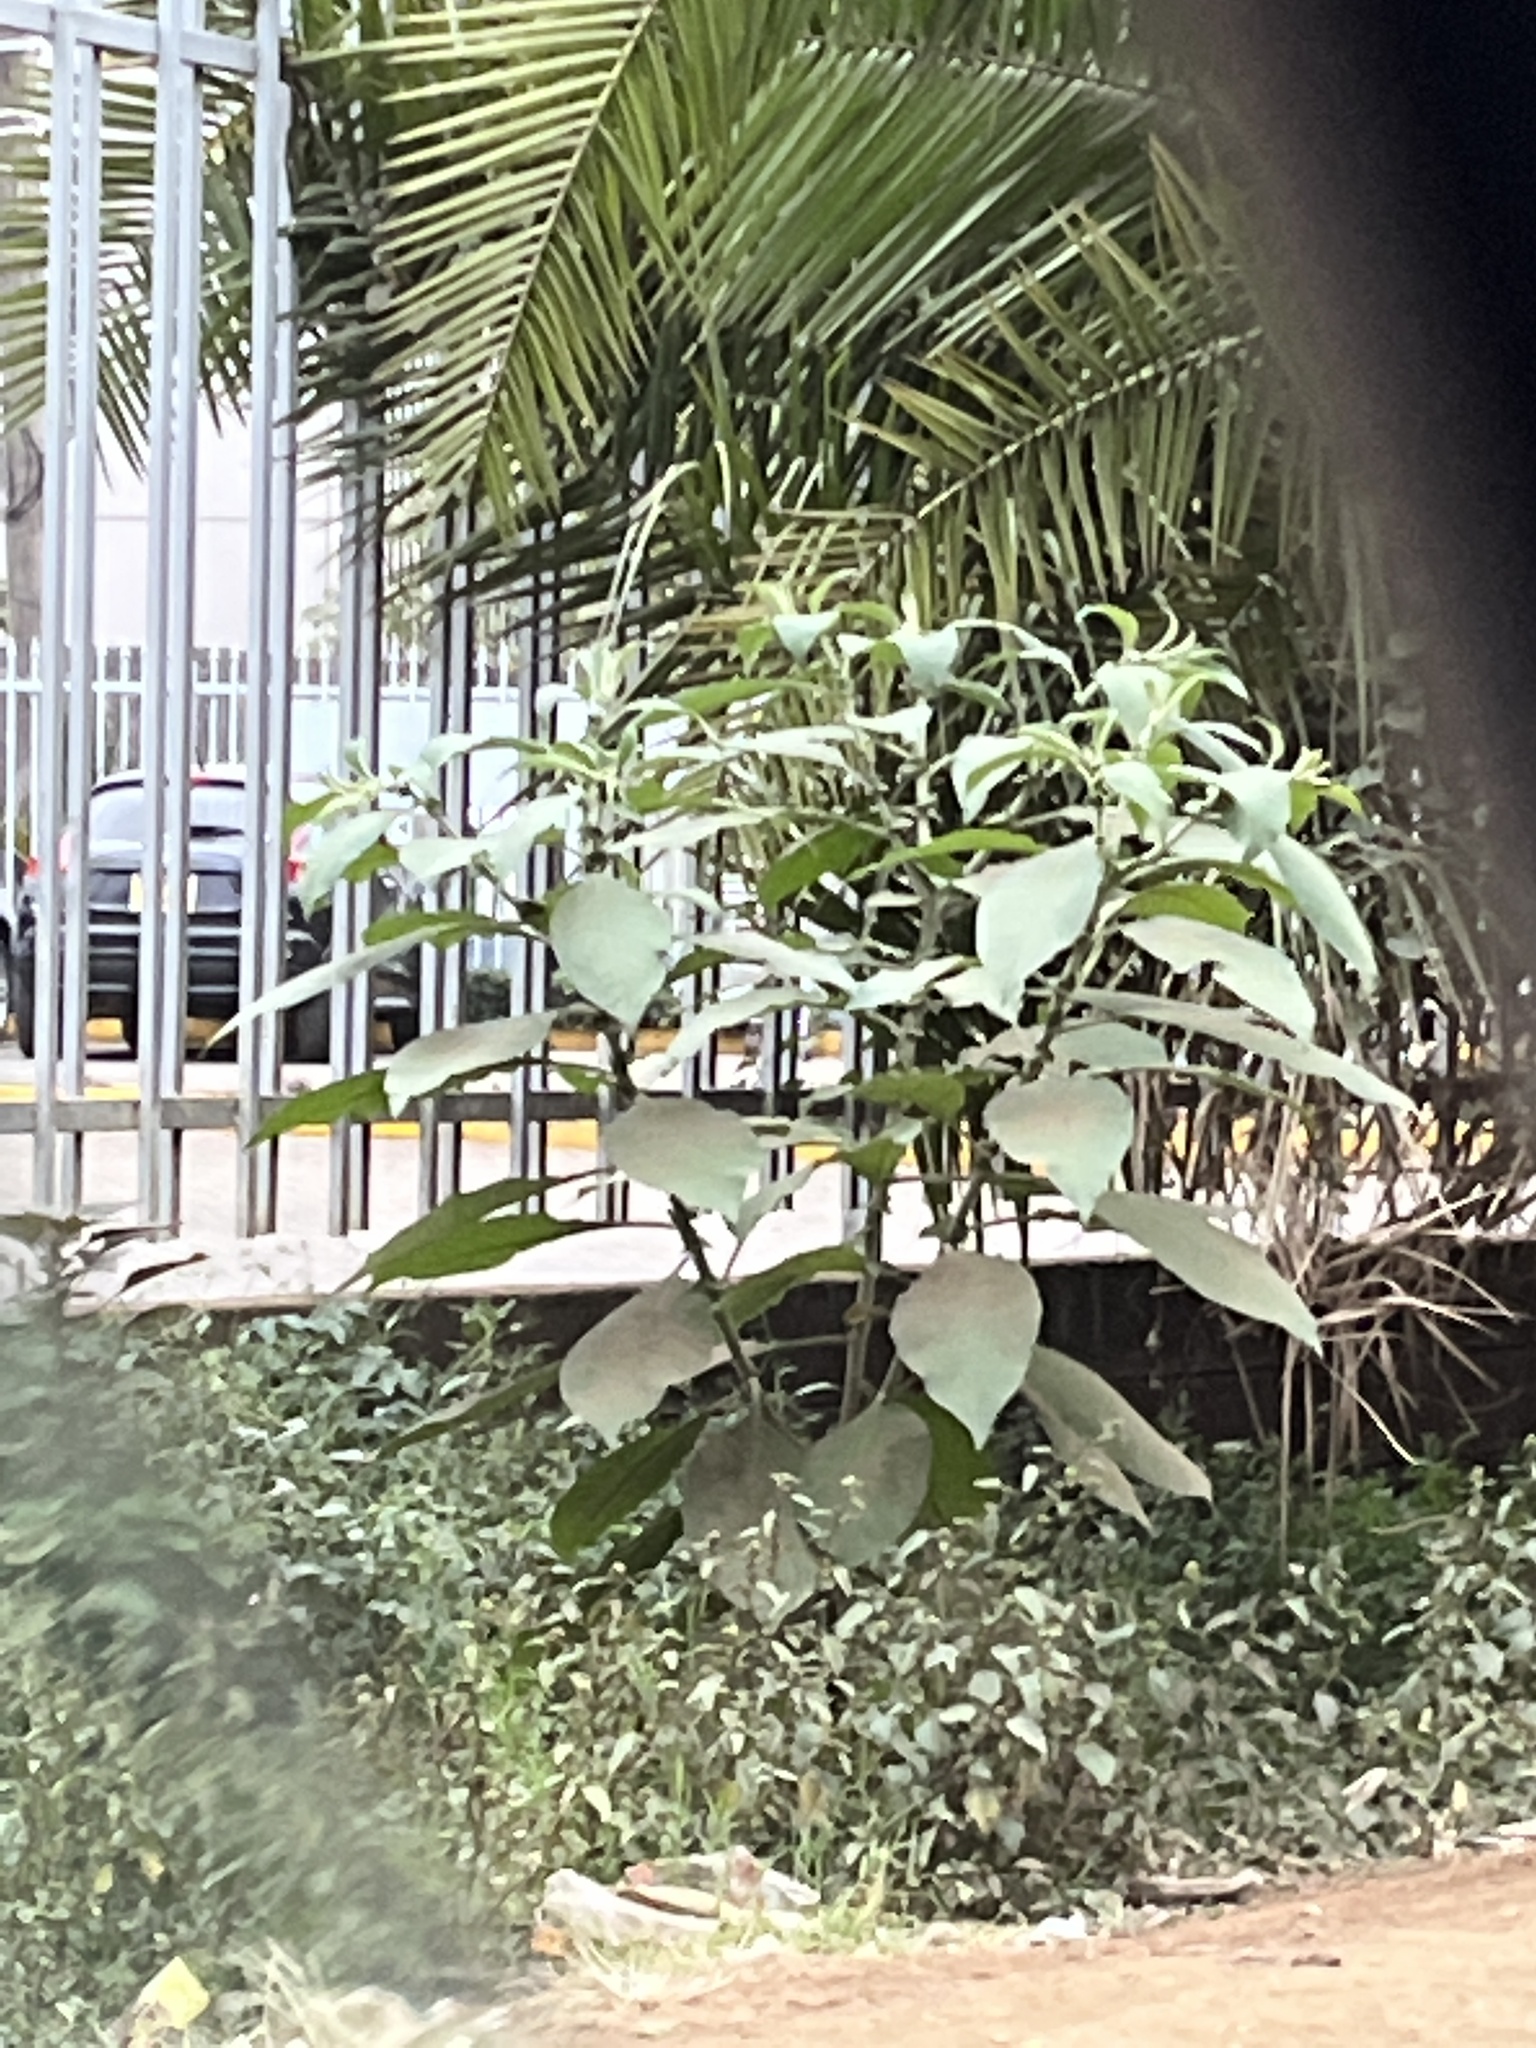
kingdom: Plantae
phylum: Tracheophyta
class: Magnoliopsida
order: Solanales
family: Solanaceae
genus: Solanum
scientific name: Solanum mauritianum
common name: Earleaf nightshade
